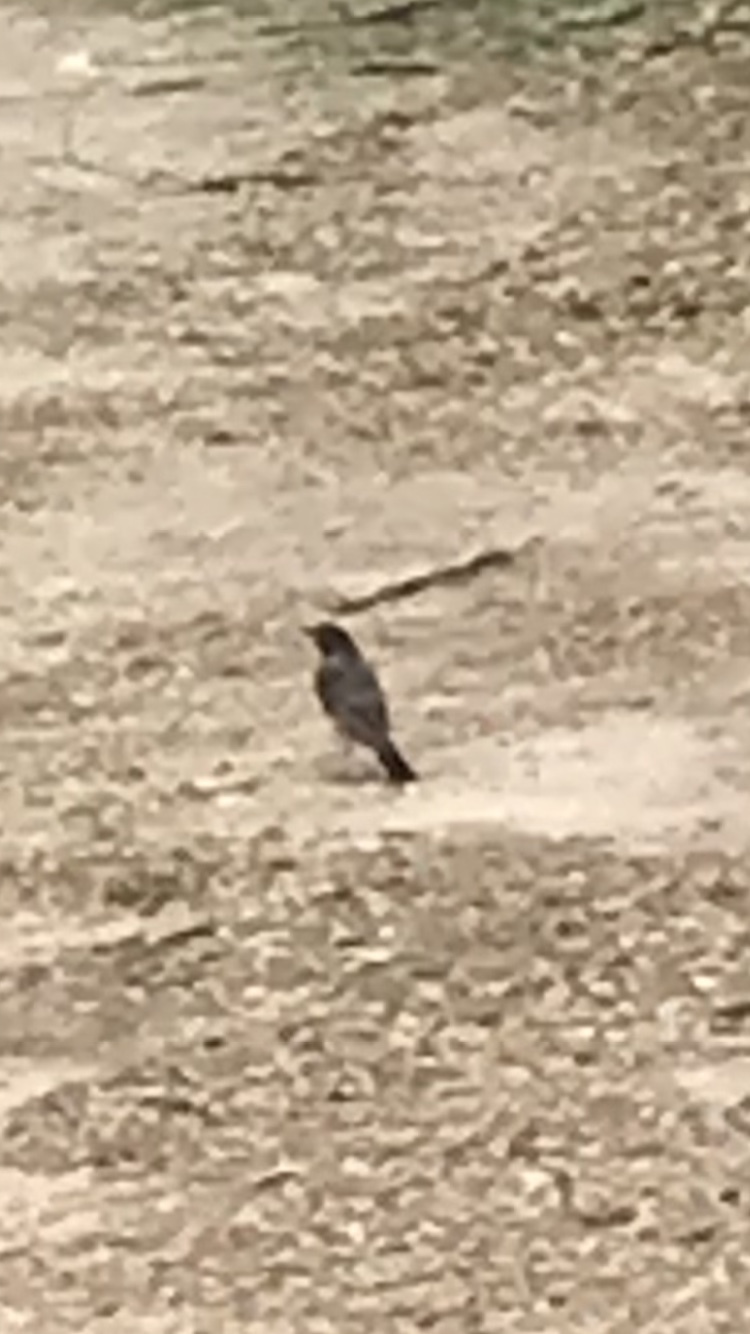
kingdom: Animalia
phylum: Chordata
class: Aves
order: Passeriformes
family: Turdidae
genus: Turdus
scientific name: Turdus migratorius
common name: American robin
